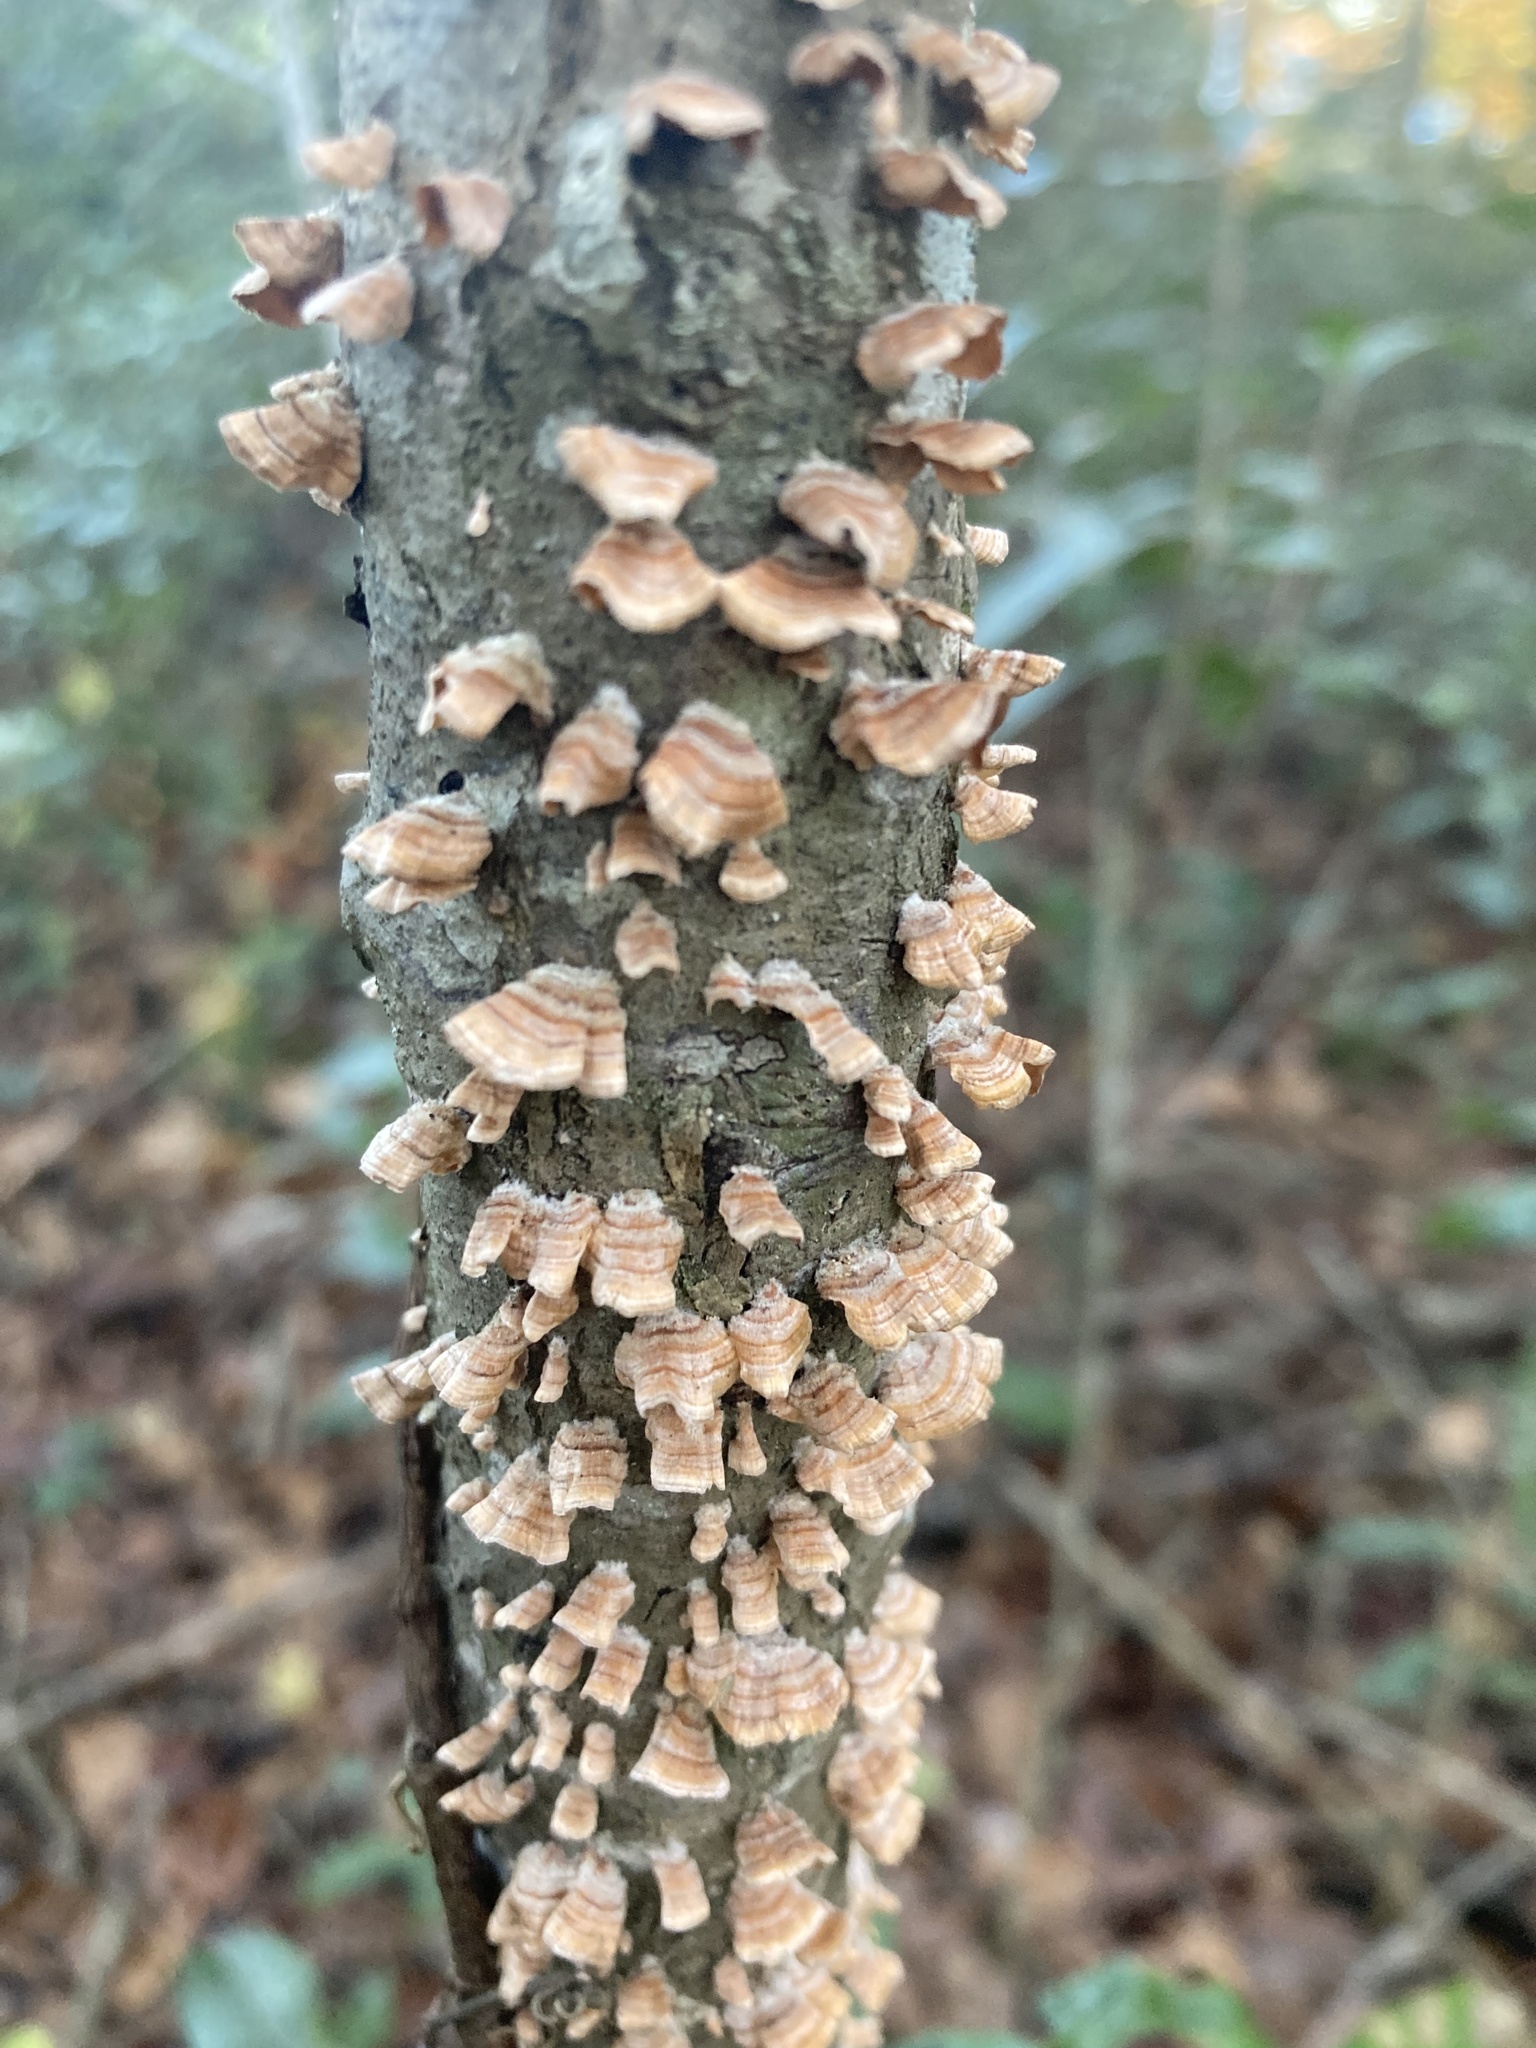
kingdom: Fungi
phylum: Basidiomycota
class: Agaricomycetes
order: Russulales
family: Stereaceae
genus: Stereum
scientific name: Stereum complicatum
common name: Crowded parchment
